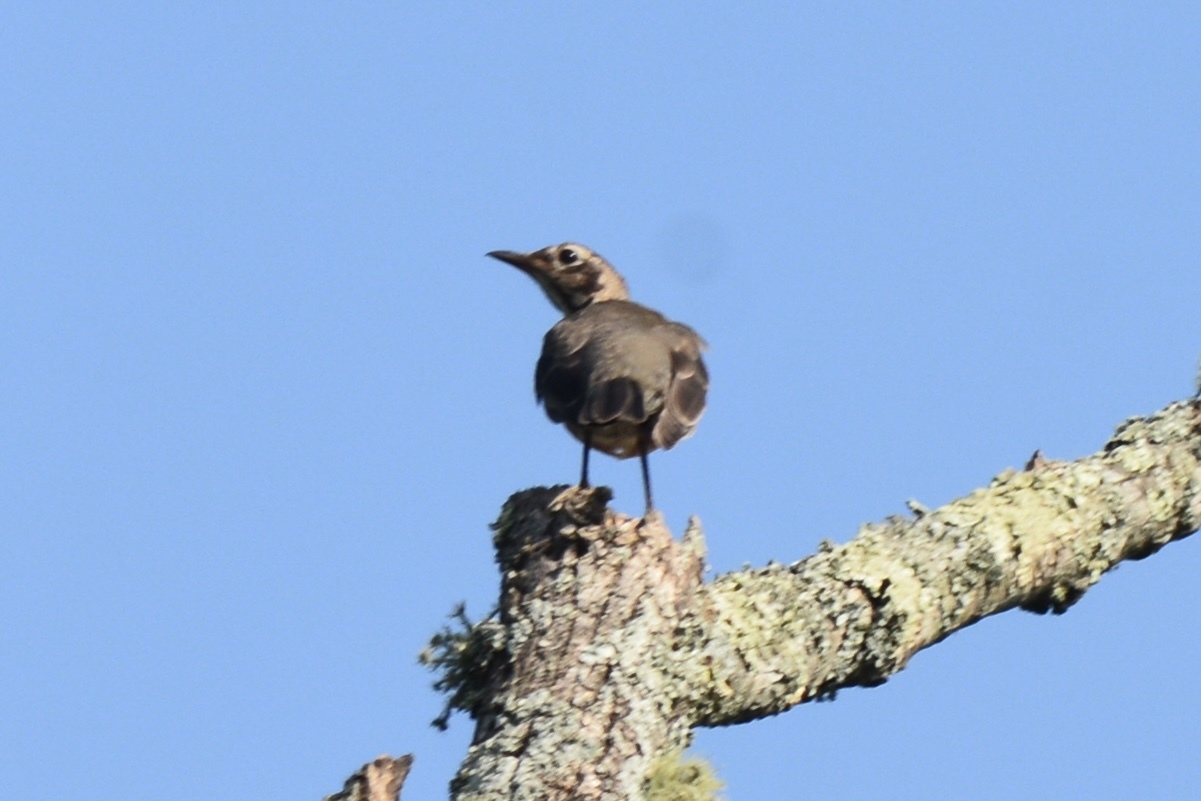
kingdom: Animalia
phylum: Chordata
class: Aves
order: Passeriformes
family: Turdidae
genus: Turdus
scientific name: Turdus migratorius
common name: American robin
